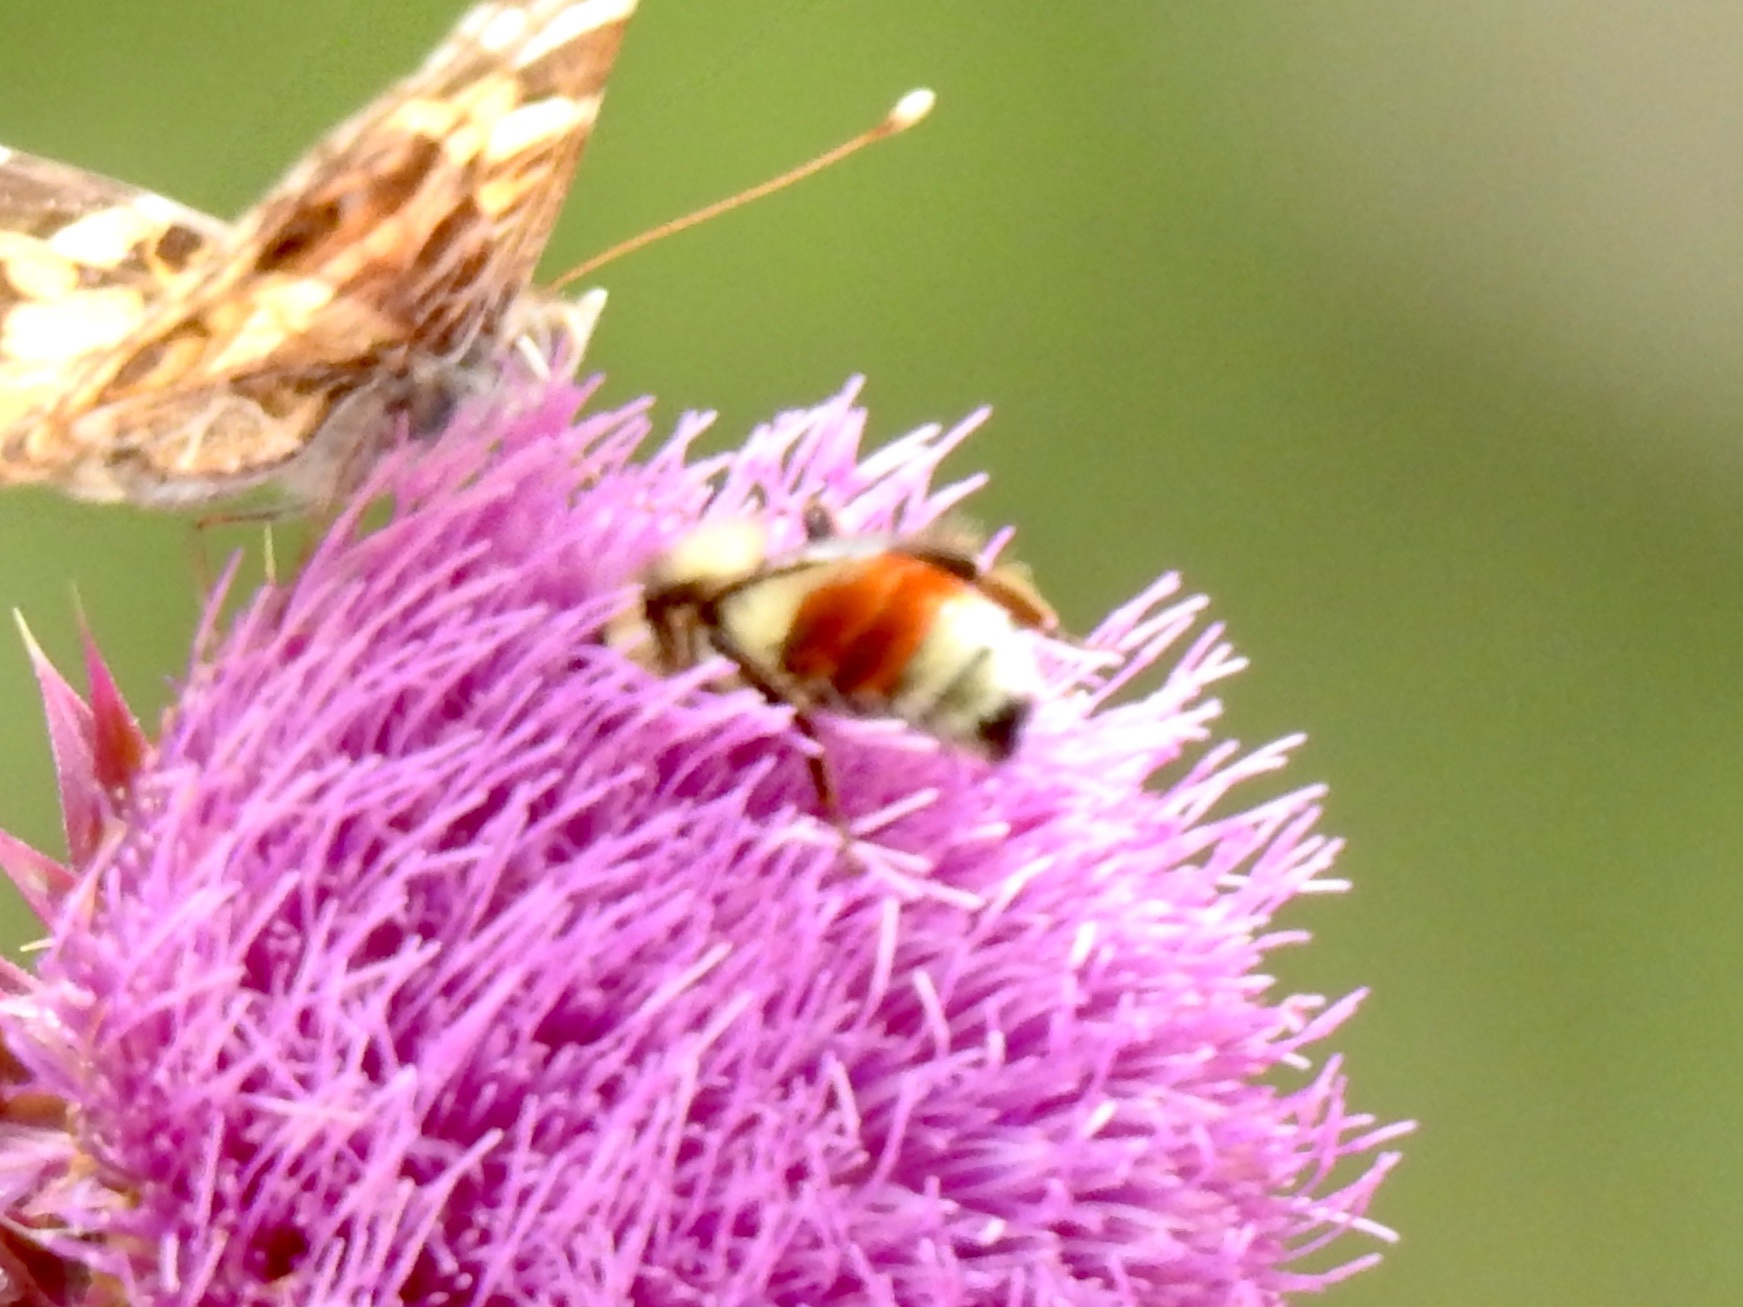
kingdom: Animalia
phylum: Arthropoda
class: Insecta
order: Hymenoptera
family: Apidae
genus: Bombus
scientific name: Bombus huntii
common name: Hunt bumble bee
